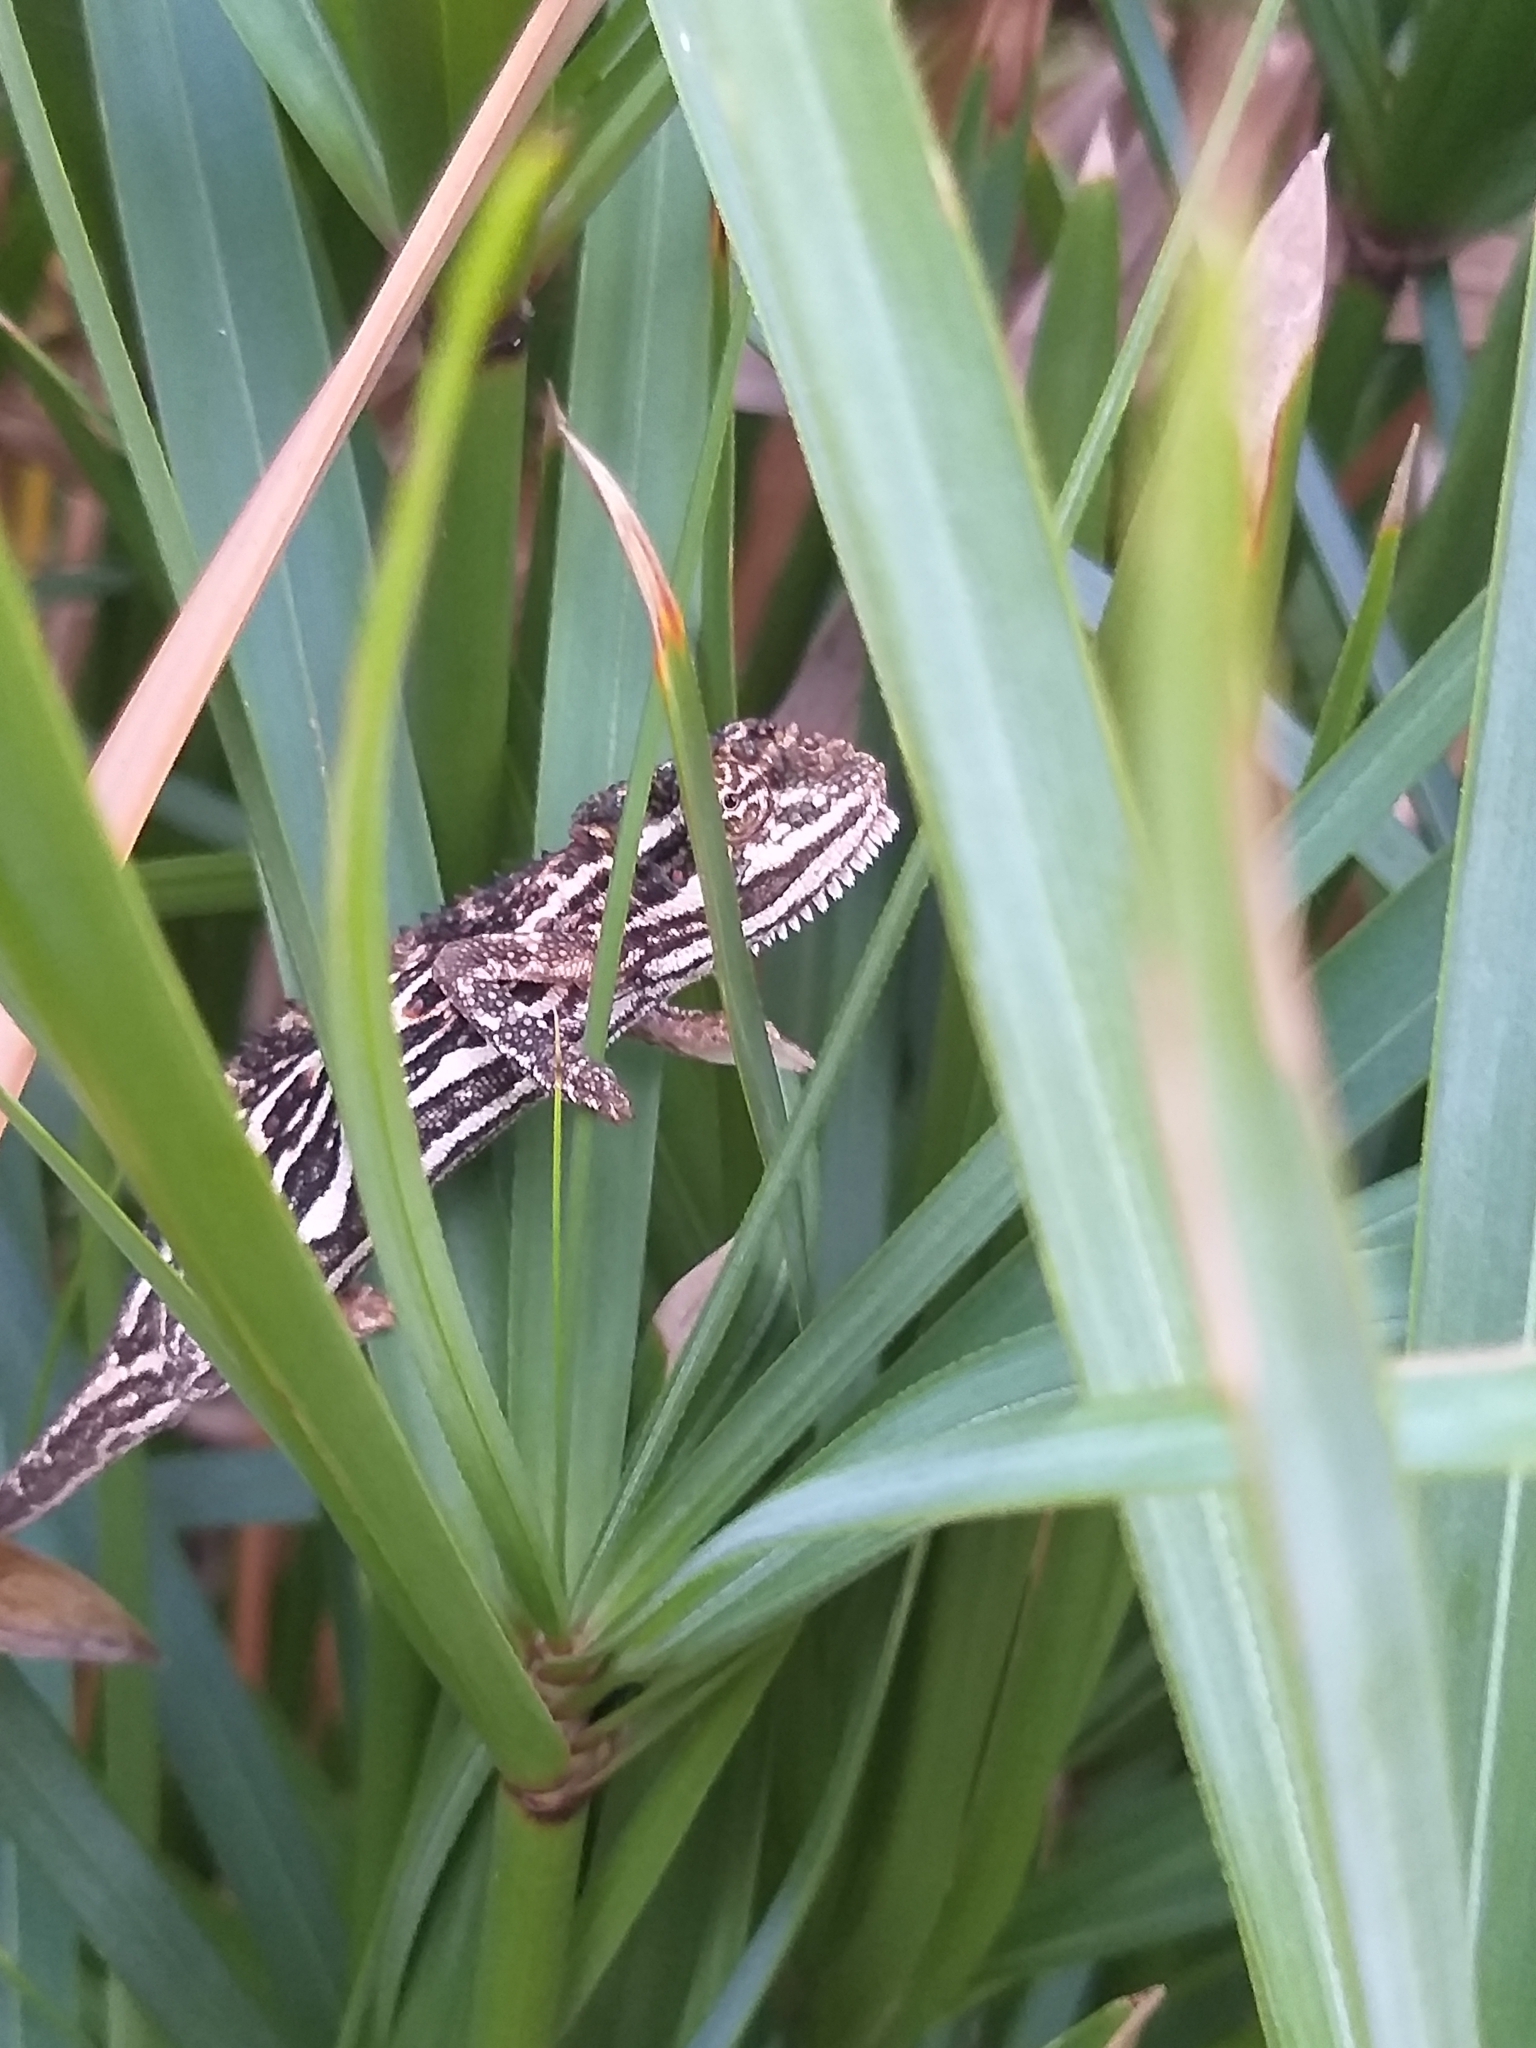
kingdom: Animalia
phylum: Chordata
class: Squamata
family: Chamaeleonidae
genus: Bradypodion
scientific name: Bradypodion pumilum
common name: Cape dwarf chameleon
